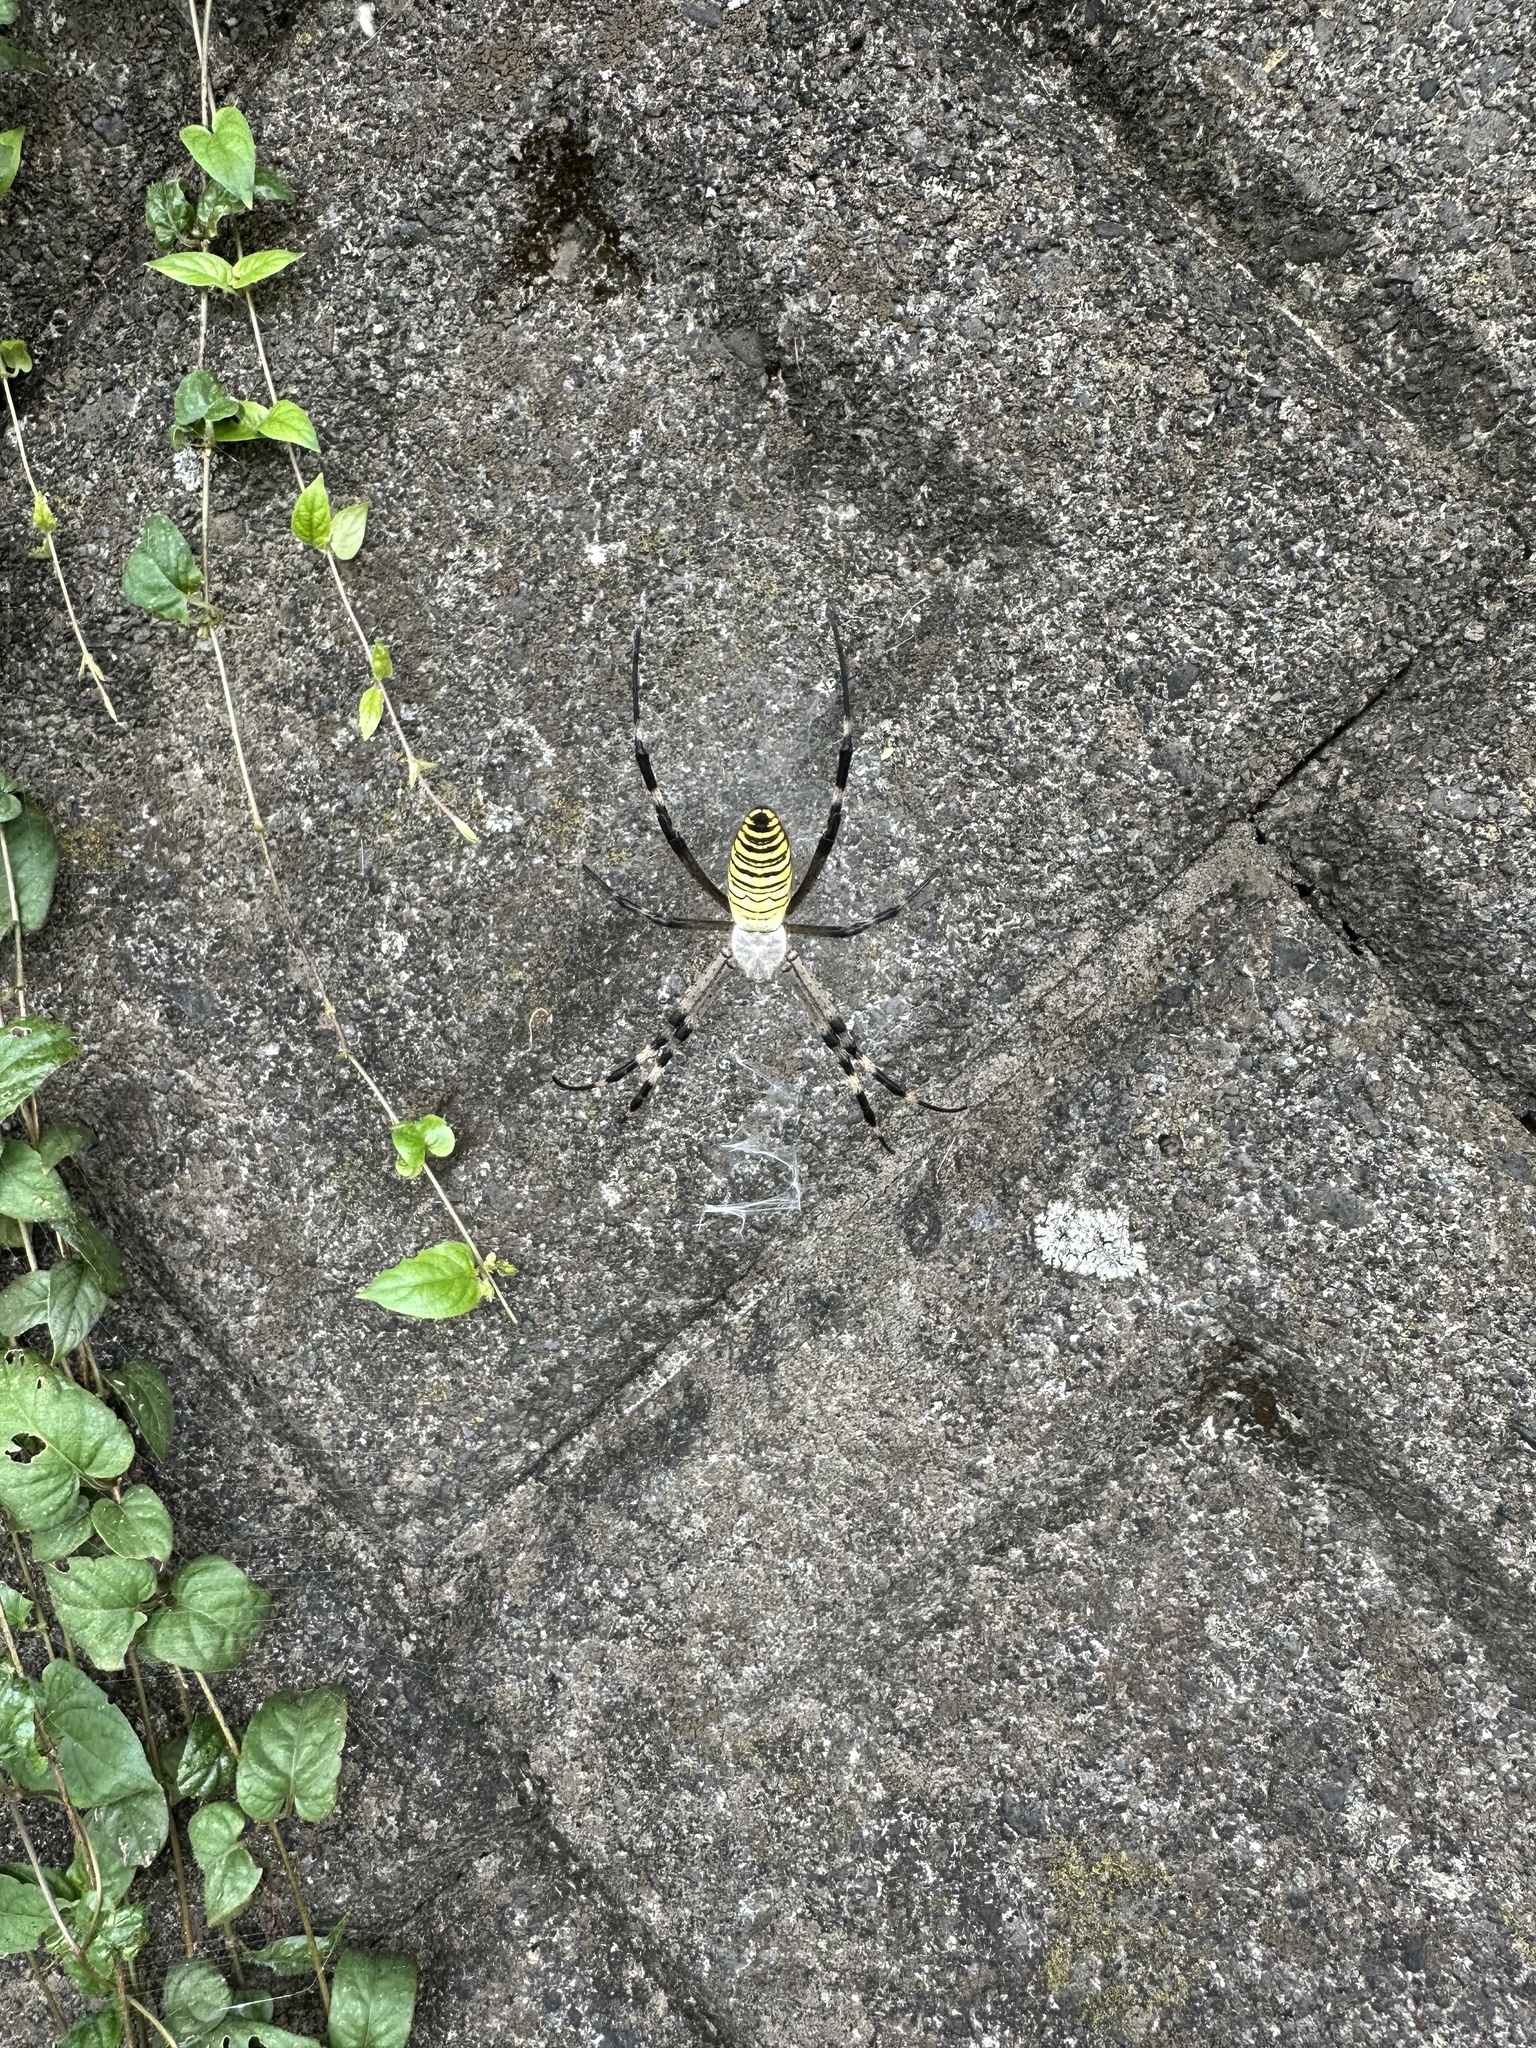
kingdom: Animalia
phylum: Arthropoda
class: Arachnida
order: Araneae
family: Araneidae
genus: Argiope
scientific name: Argiope bruennichi
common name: Wasp spider
